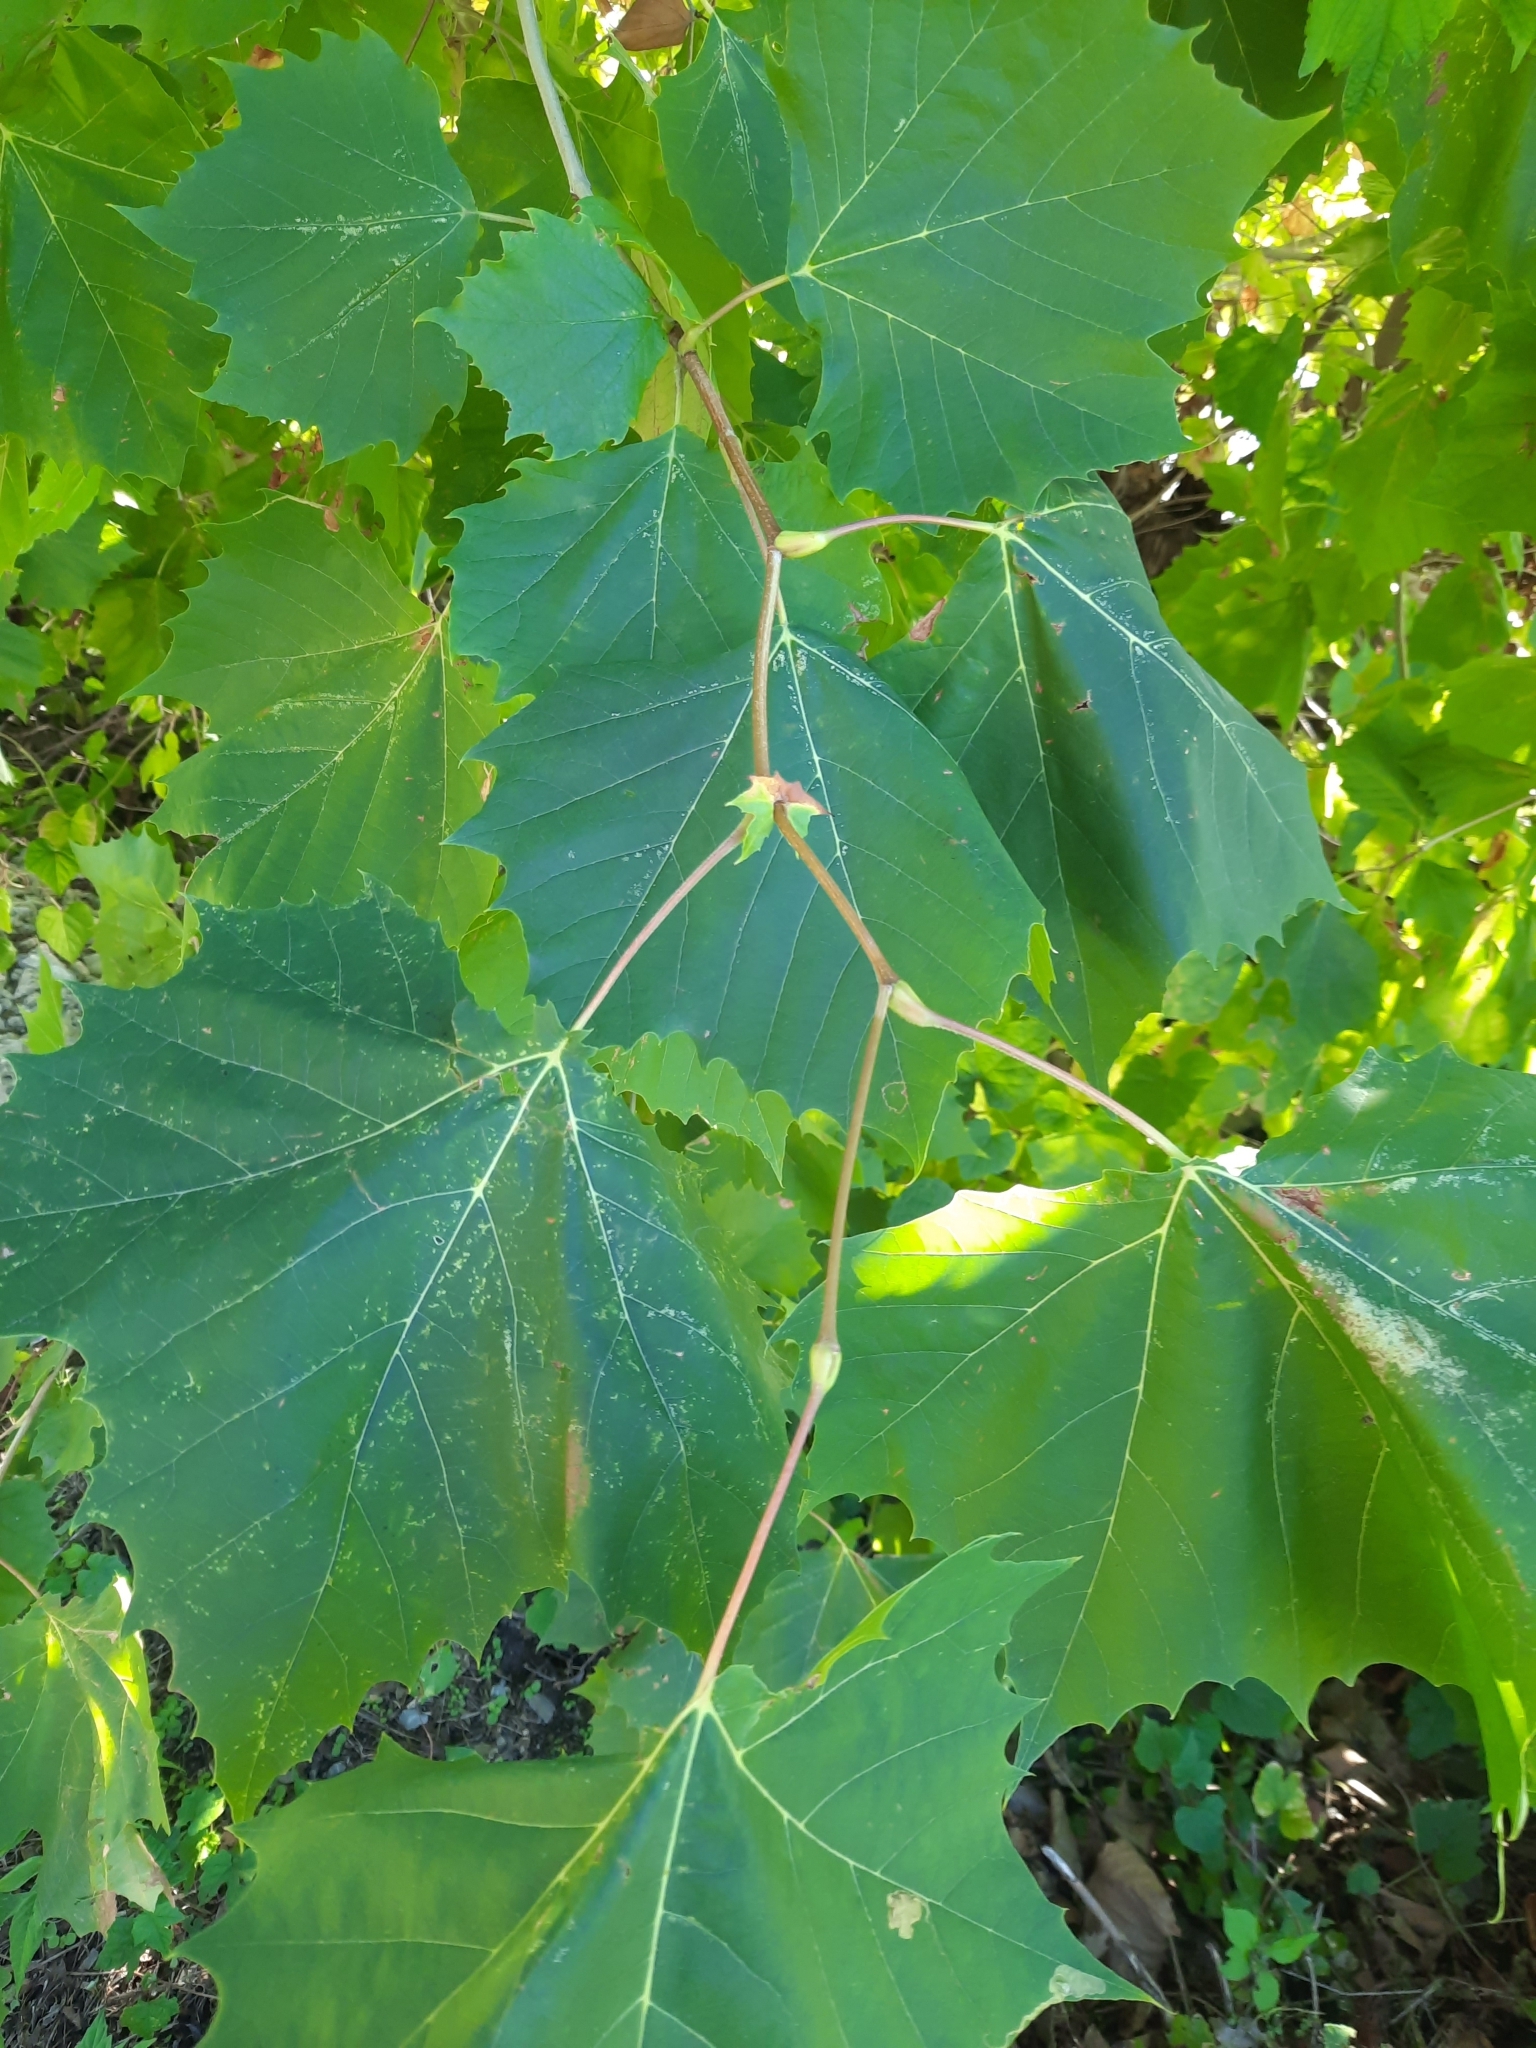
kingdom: Plantae
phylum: Tracheophyta
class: Magnoliopsida
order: Proteales
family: Platanaceae
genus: Platanus
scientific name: Platanus occidentalis
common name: American sycamore
